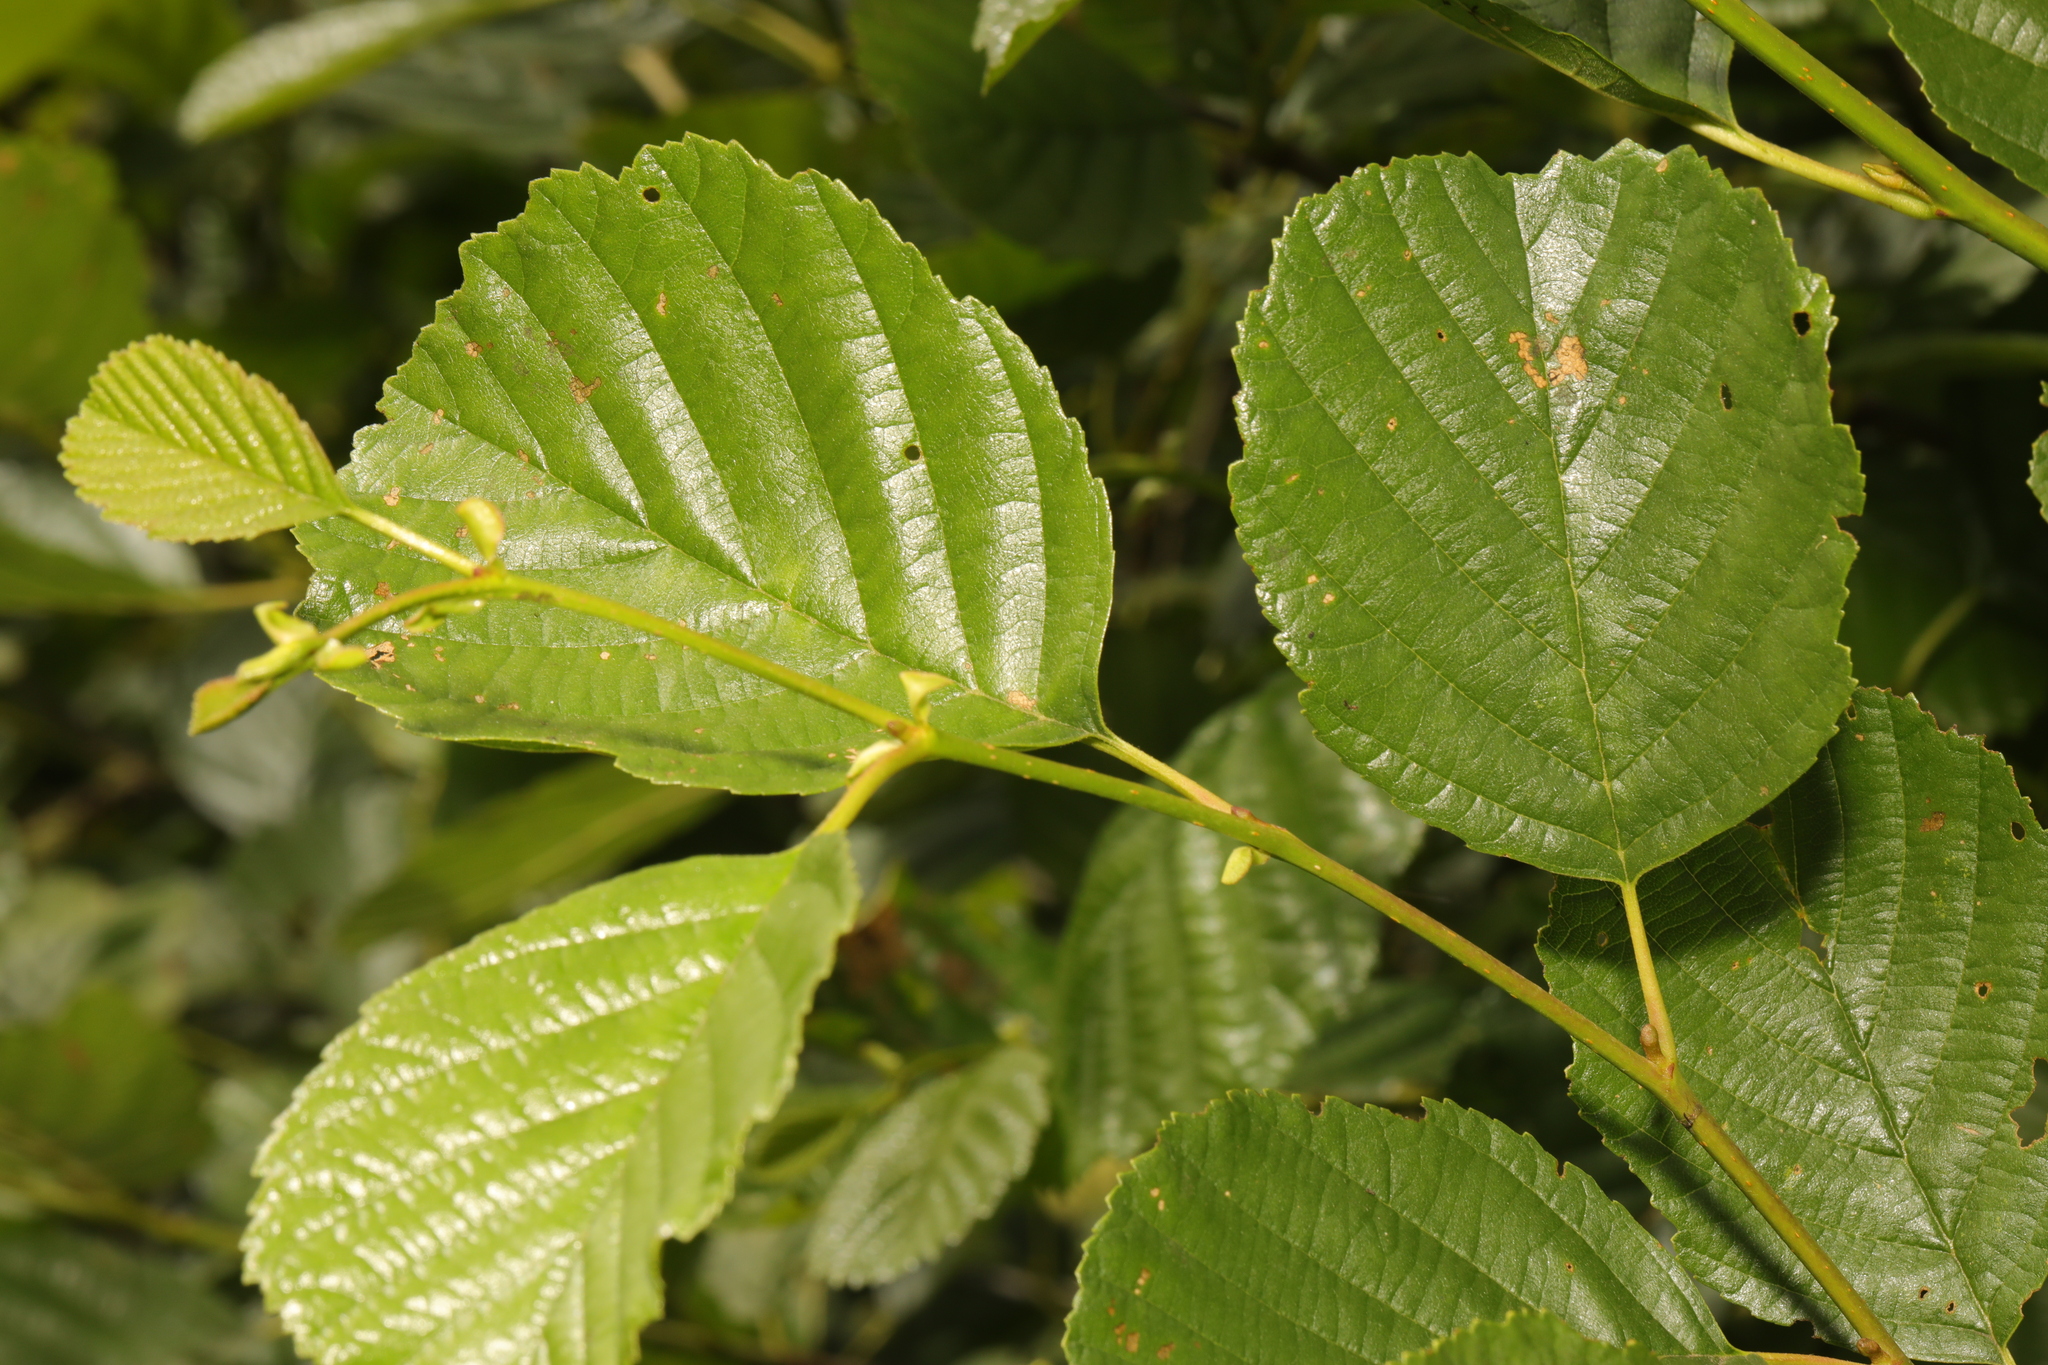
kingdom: Plantae
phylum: Tracheophyta
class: Magnoliopsida
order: Fagales
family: Betulaceae
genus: Alnus
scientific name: Alnus glutinosa
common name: Black alder
